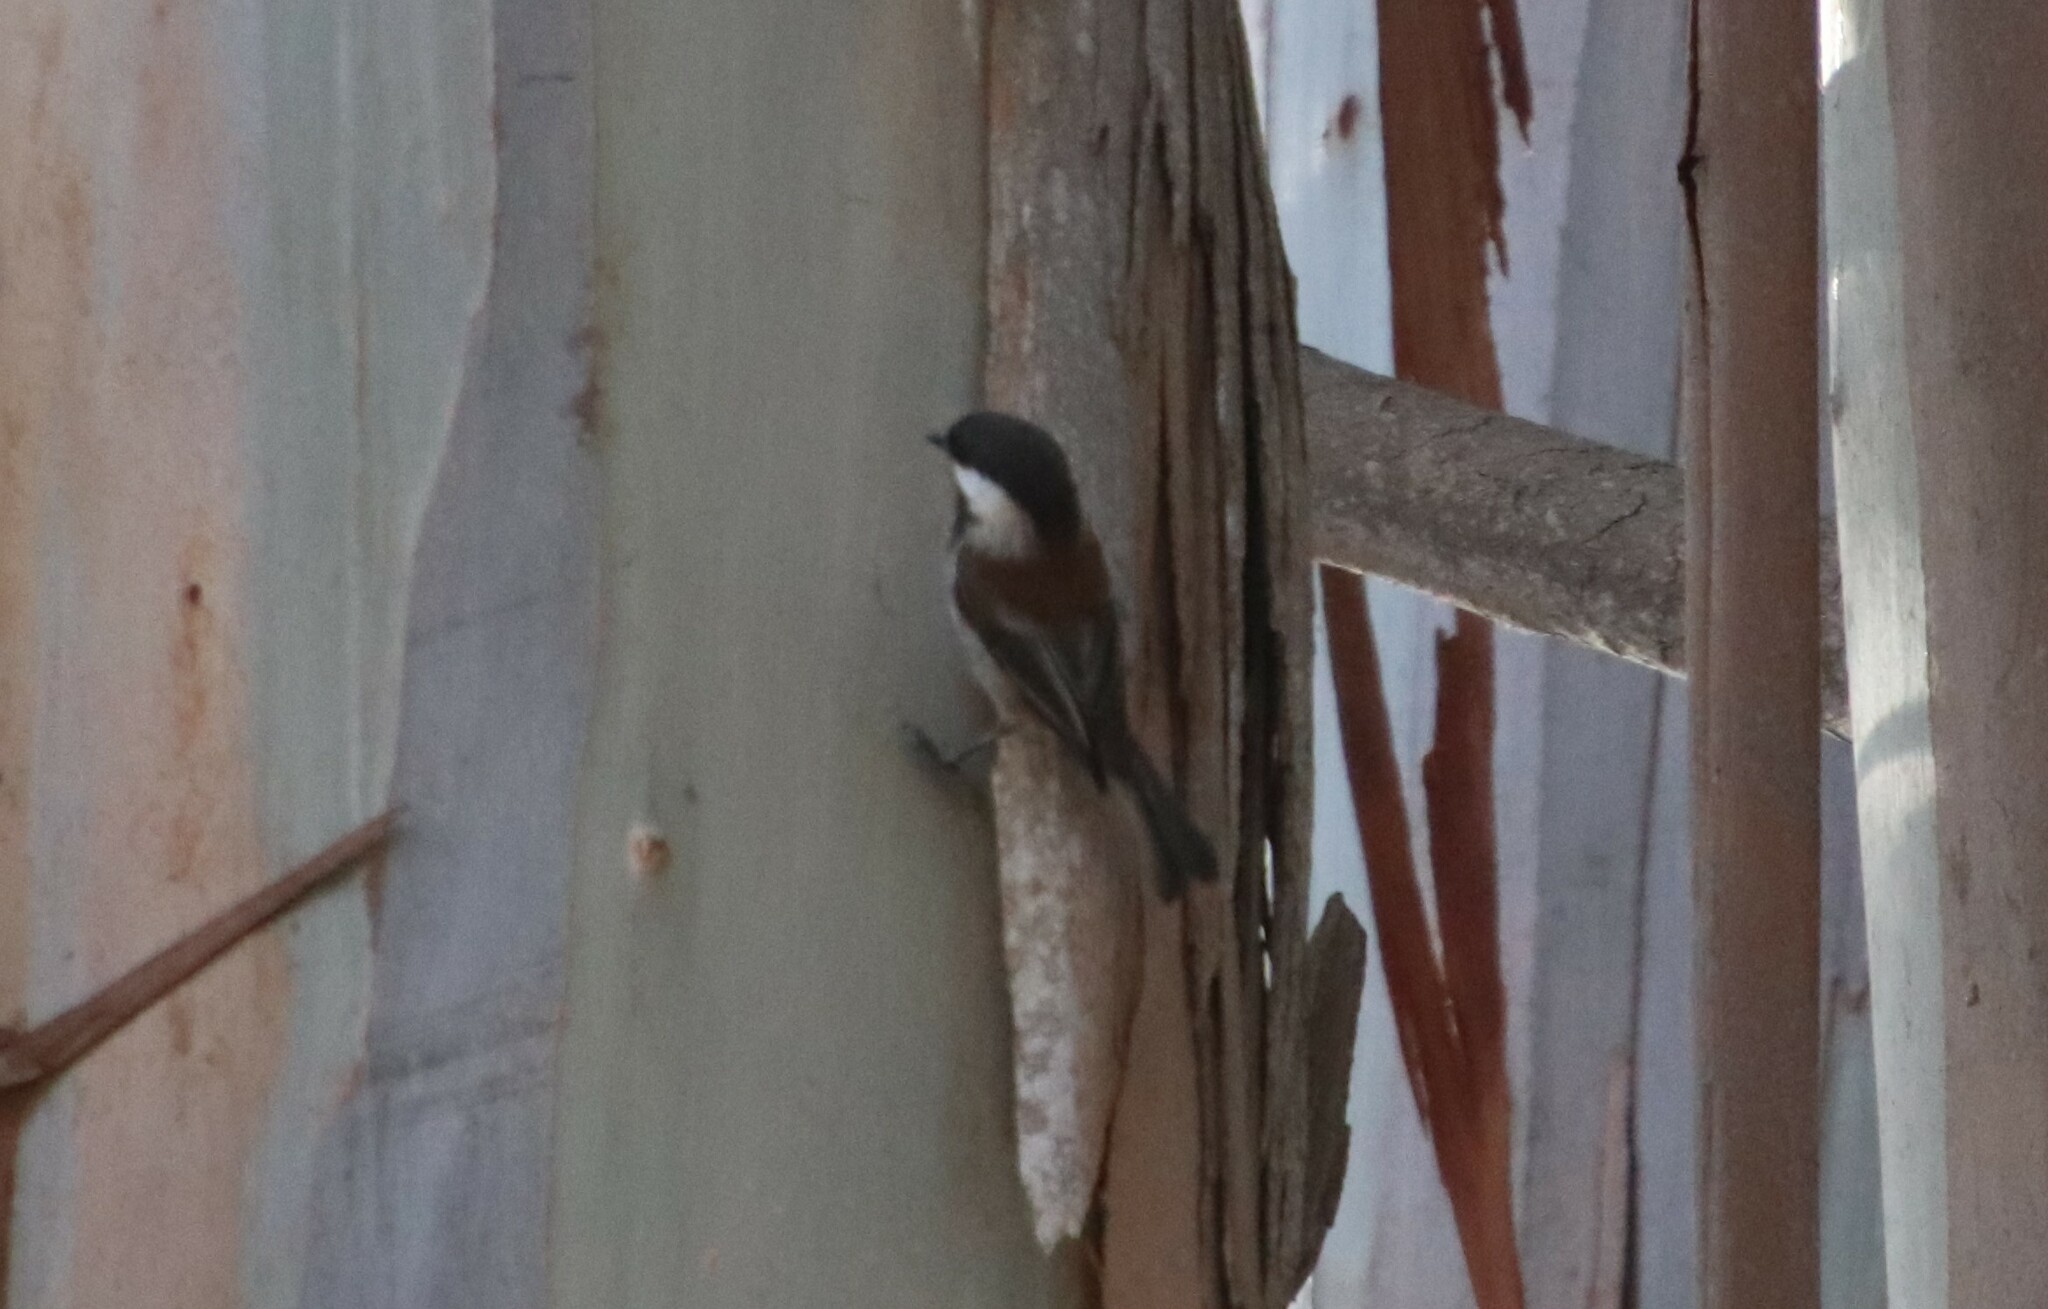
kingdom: Animalia
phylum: Chordata
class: Aves
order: Passeriformes
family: Paridae
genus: Poecile
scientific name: Poecile rufescens
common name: Chestnut-backed chickadee
